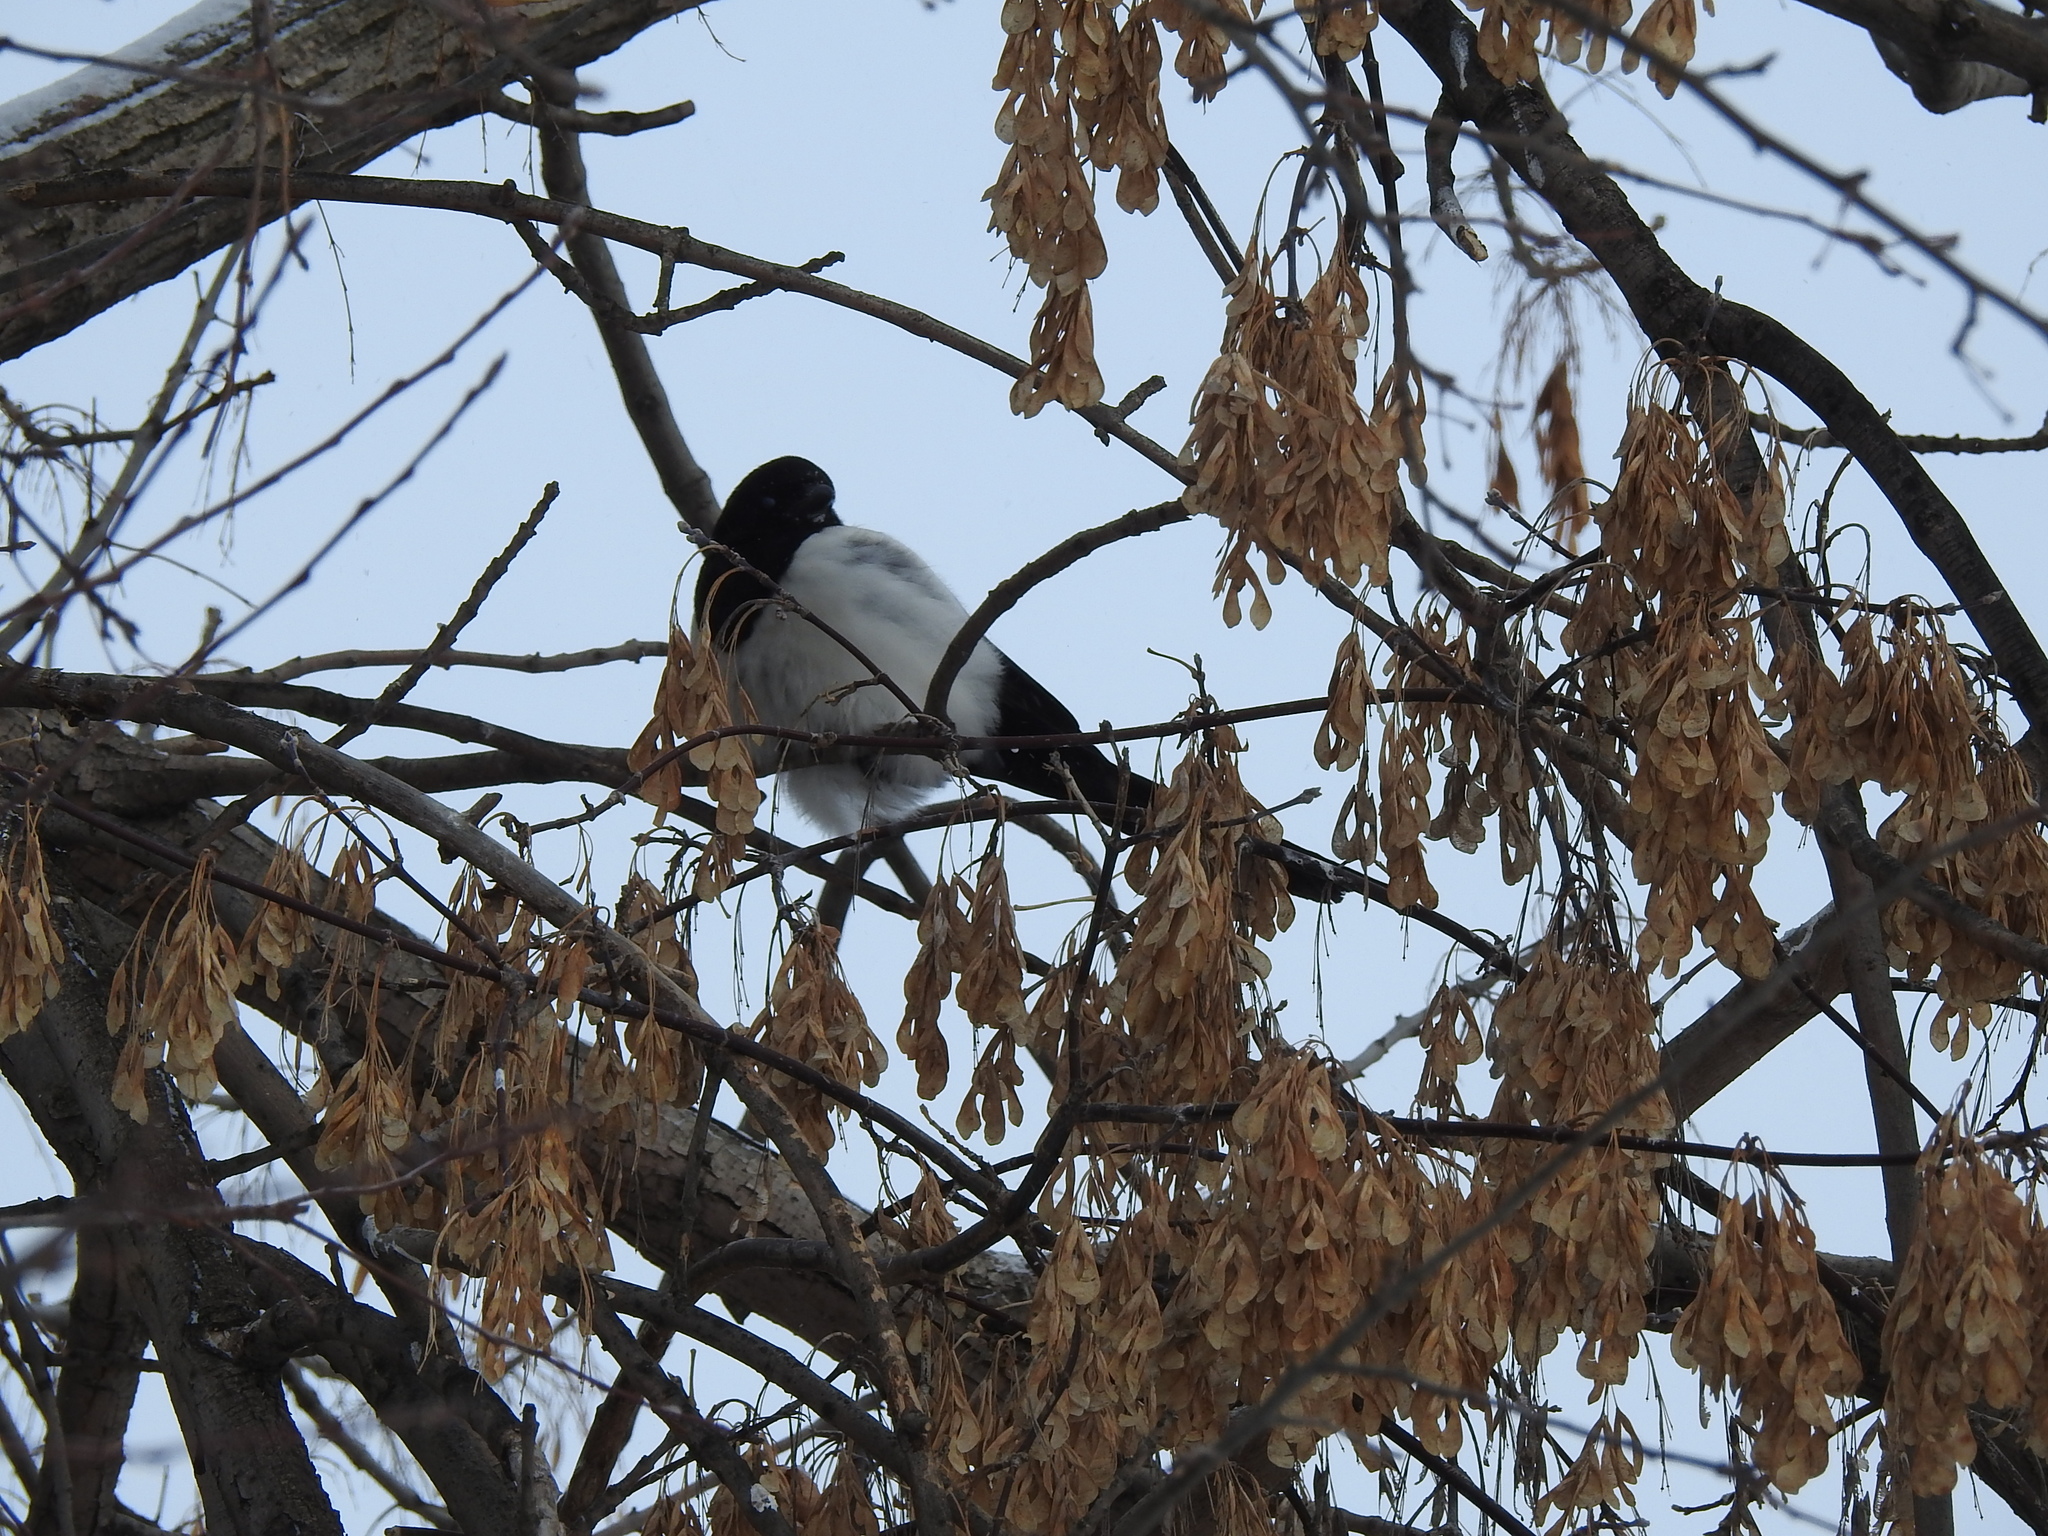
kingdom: Animalia
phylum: Chordata
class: Aves
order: Passeriformes
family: Corvidae
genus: Pica
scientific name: Pica pica
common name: Eurasian magpie
